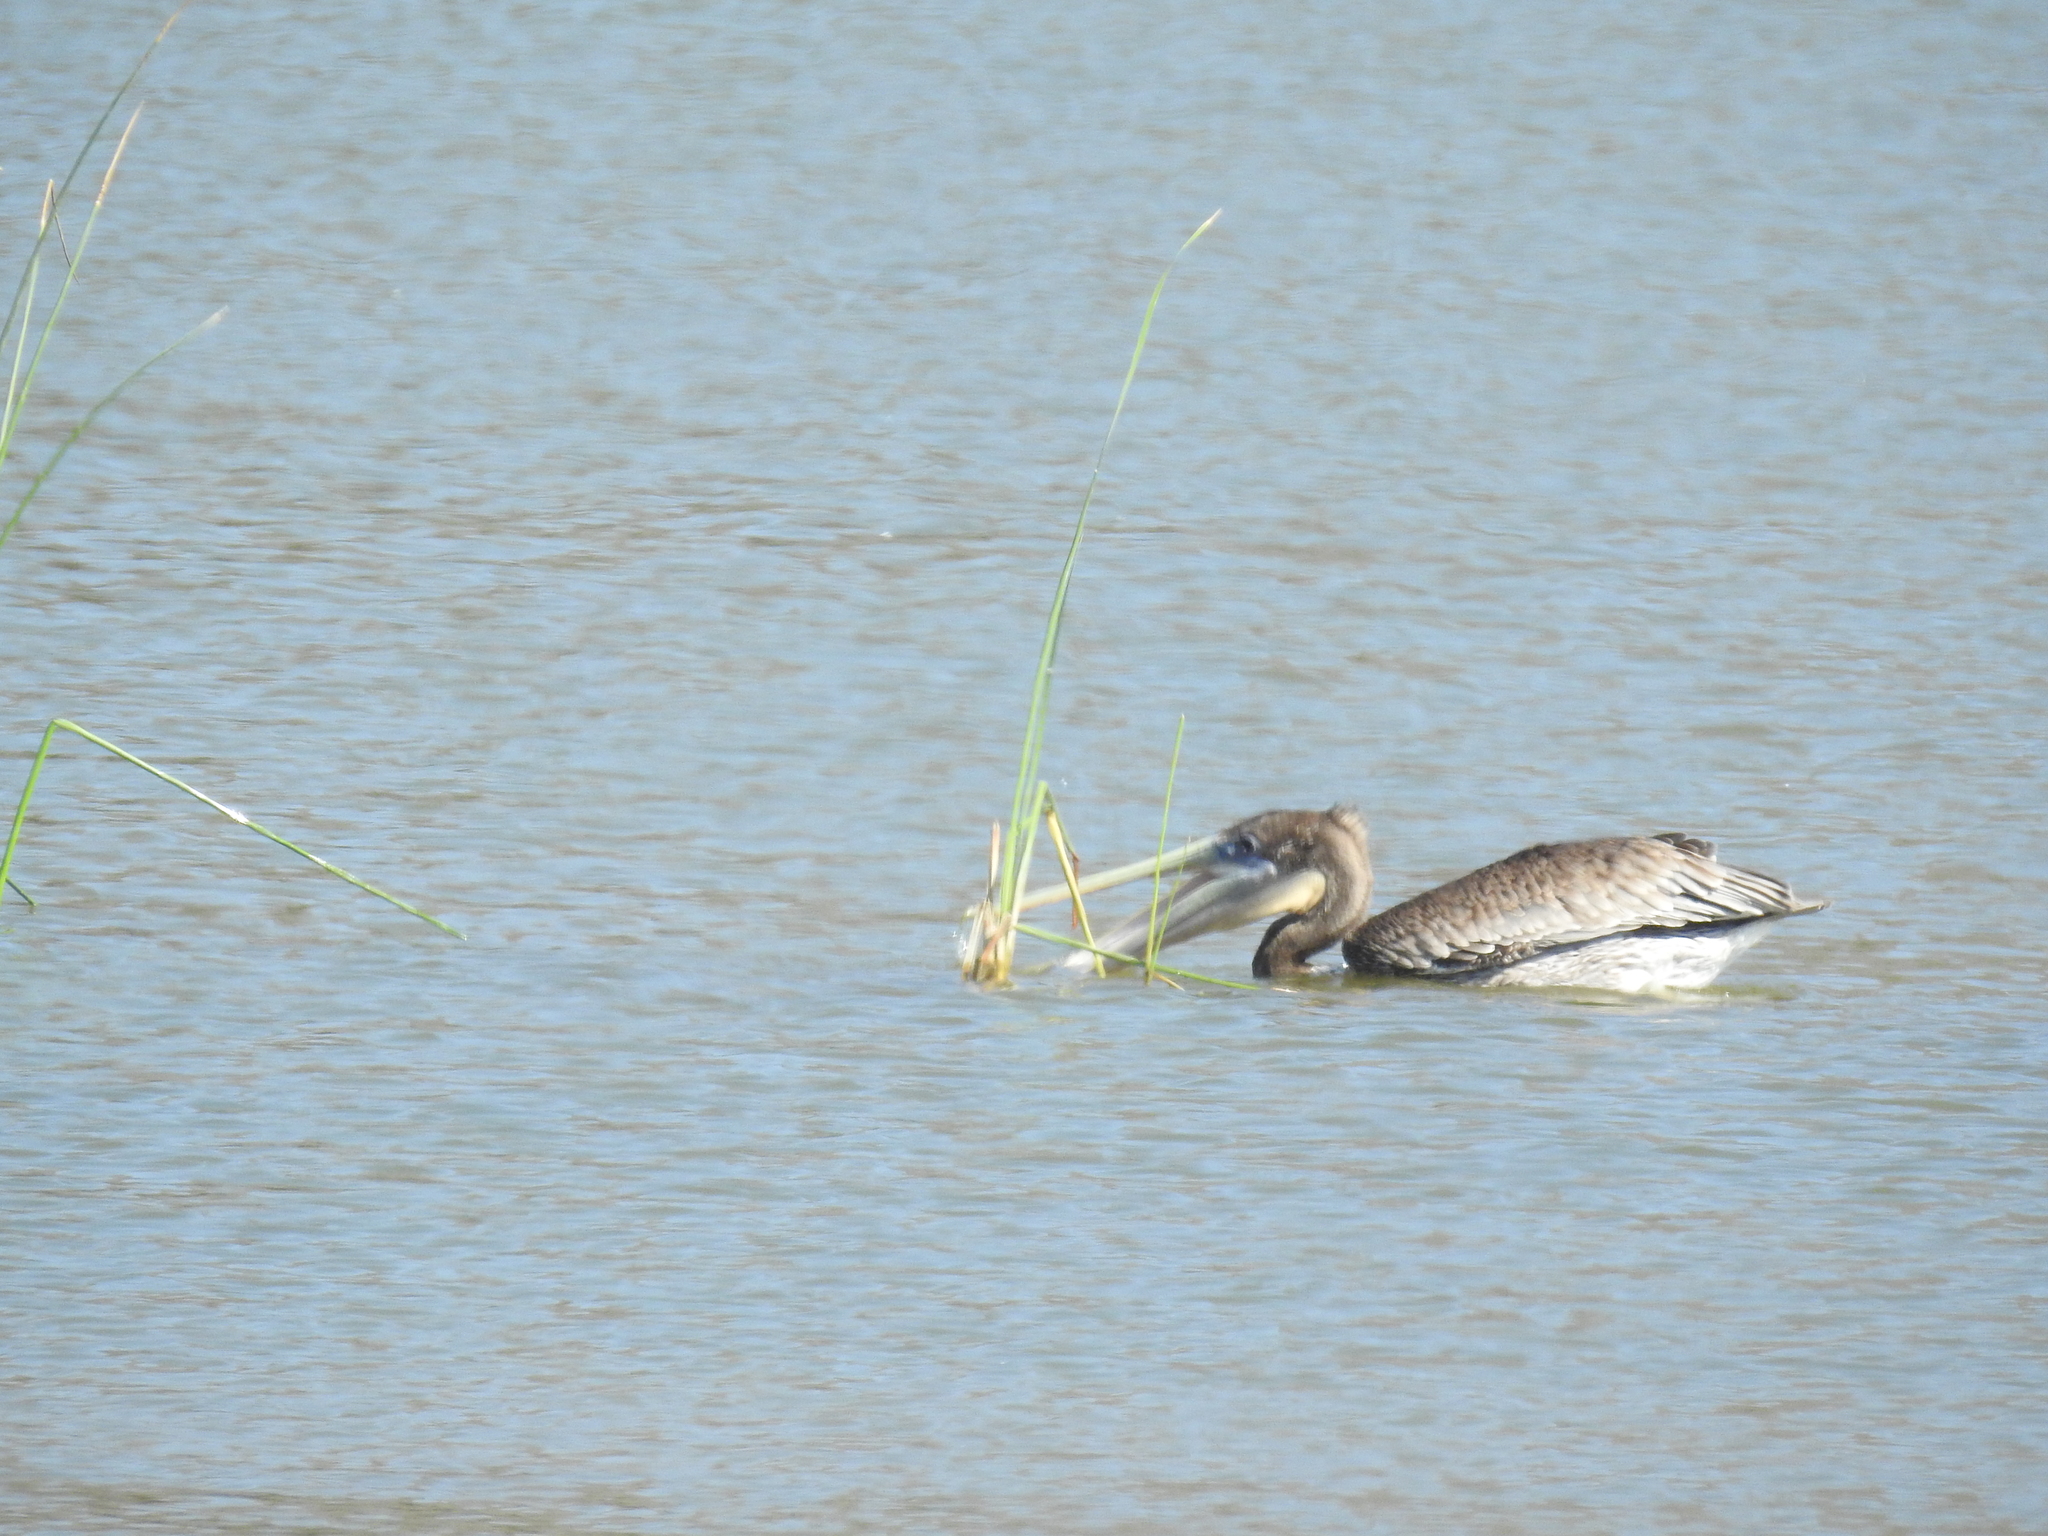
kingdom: Animalia
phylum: Chordata
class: Aves
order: Pelecaniformes
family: Pelecanidae
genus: Pelecanus
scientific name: Pelecanus occidentalis
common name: Brown pelican
